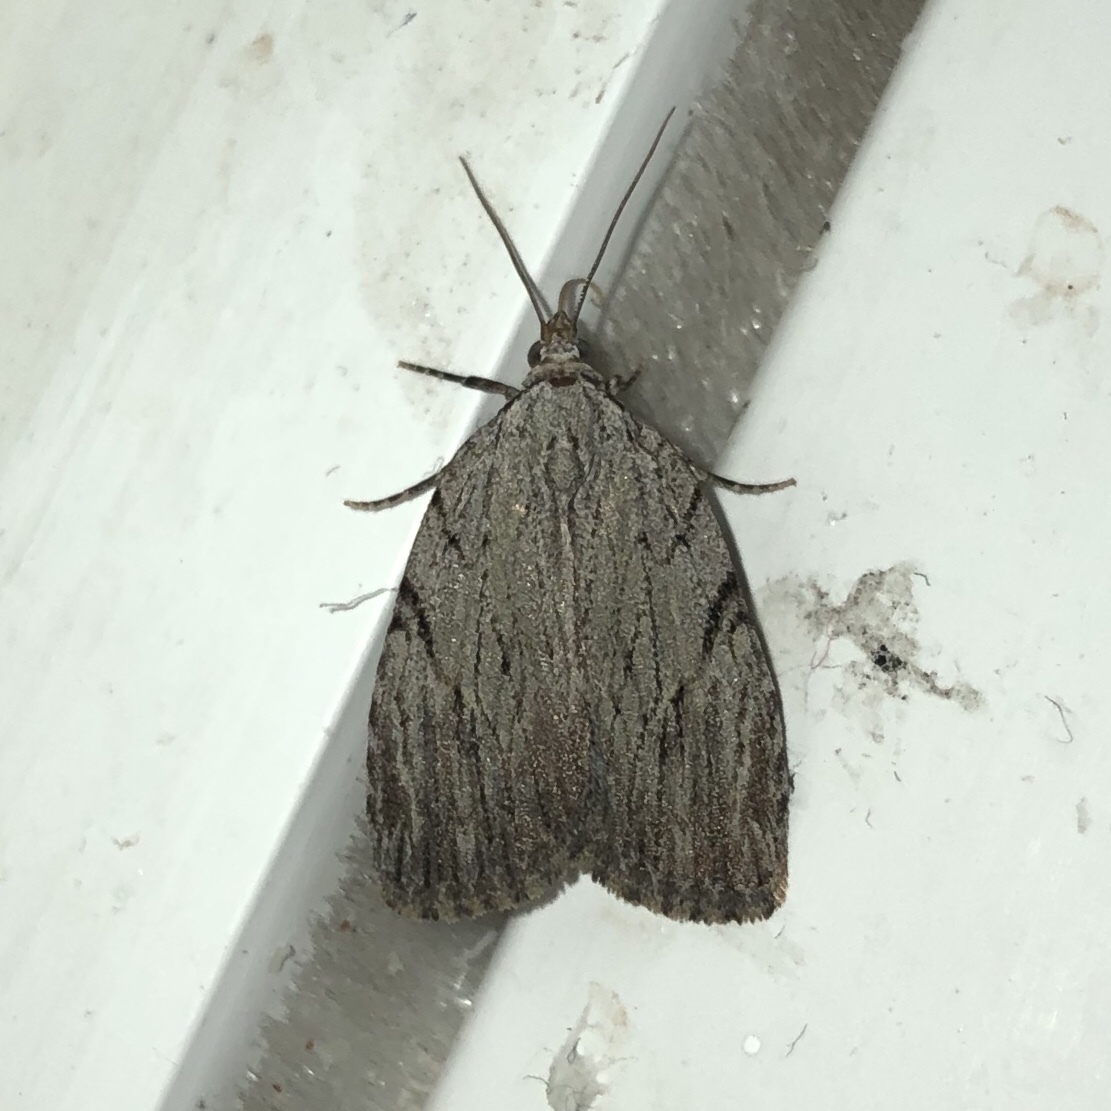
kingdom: Animalia
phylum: Arthropoda
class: Insecta
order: Lepidoptera
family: Noctuidae
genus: Balsa
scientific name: Balsa tristrigella
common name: Three-lined balsa moth
